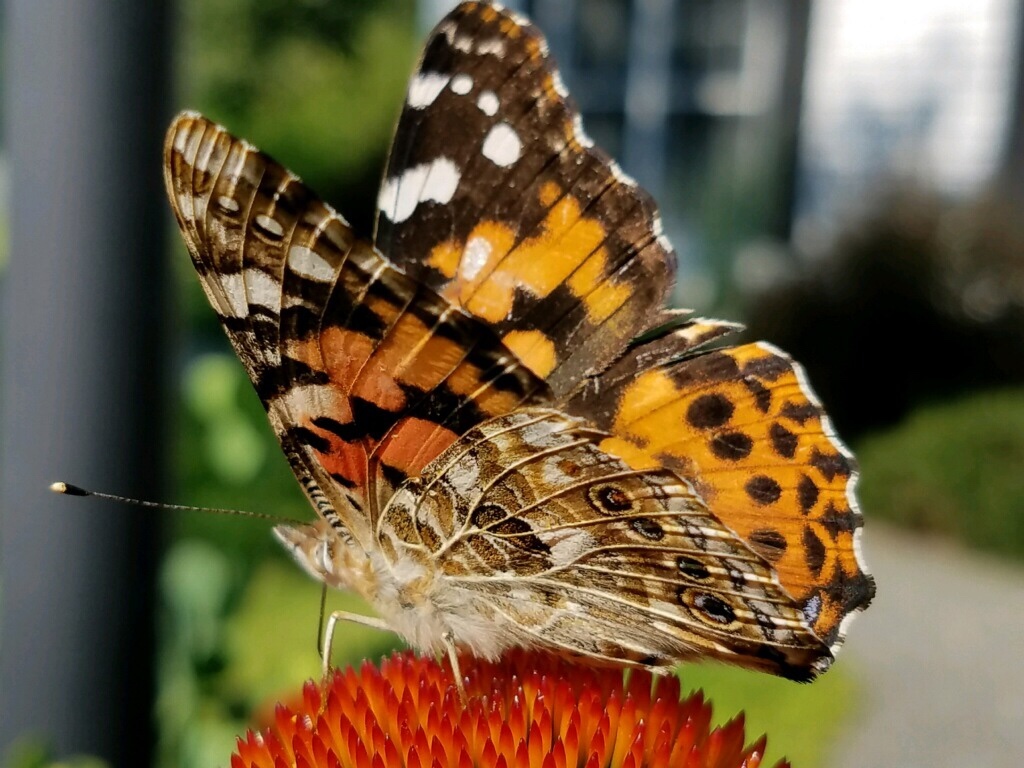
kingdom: Animalia
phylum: Arthropoda
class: Insecta
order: Lepidoptera
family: Nymphalidae
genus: Vanessa
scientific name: Vanessa cardui
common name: Painted lady
